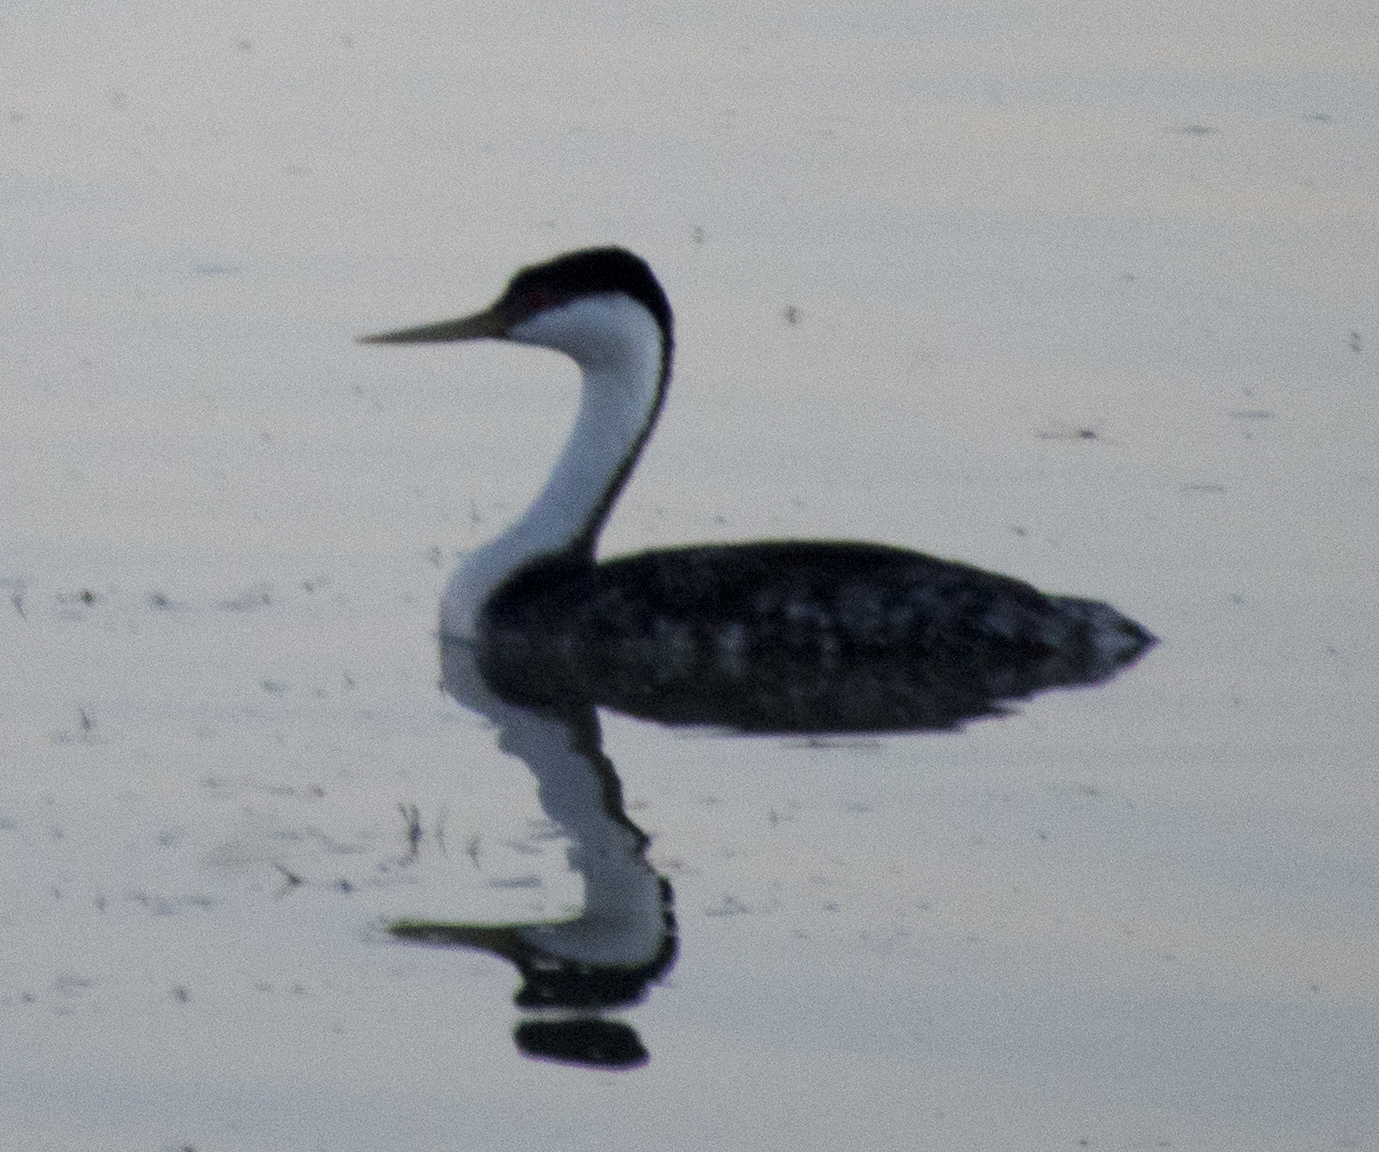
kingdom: Animalia
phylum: Chordata
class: Aves
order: Podicipediformes
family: Podicipedidae
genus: Aechmophorus
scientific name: Aechmophorus occidentalis
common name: Western grebe
